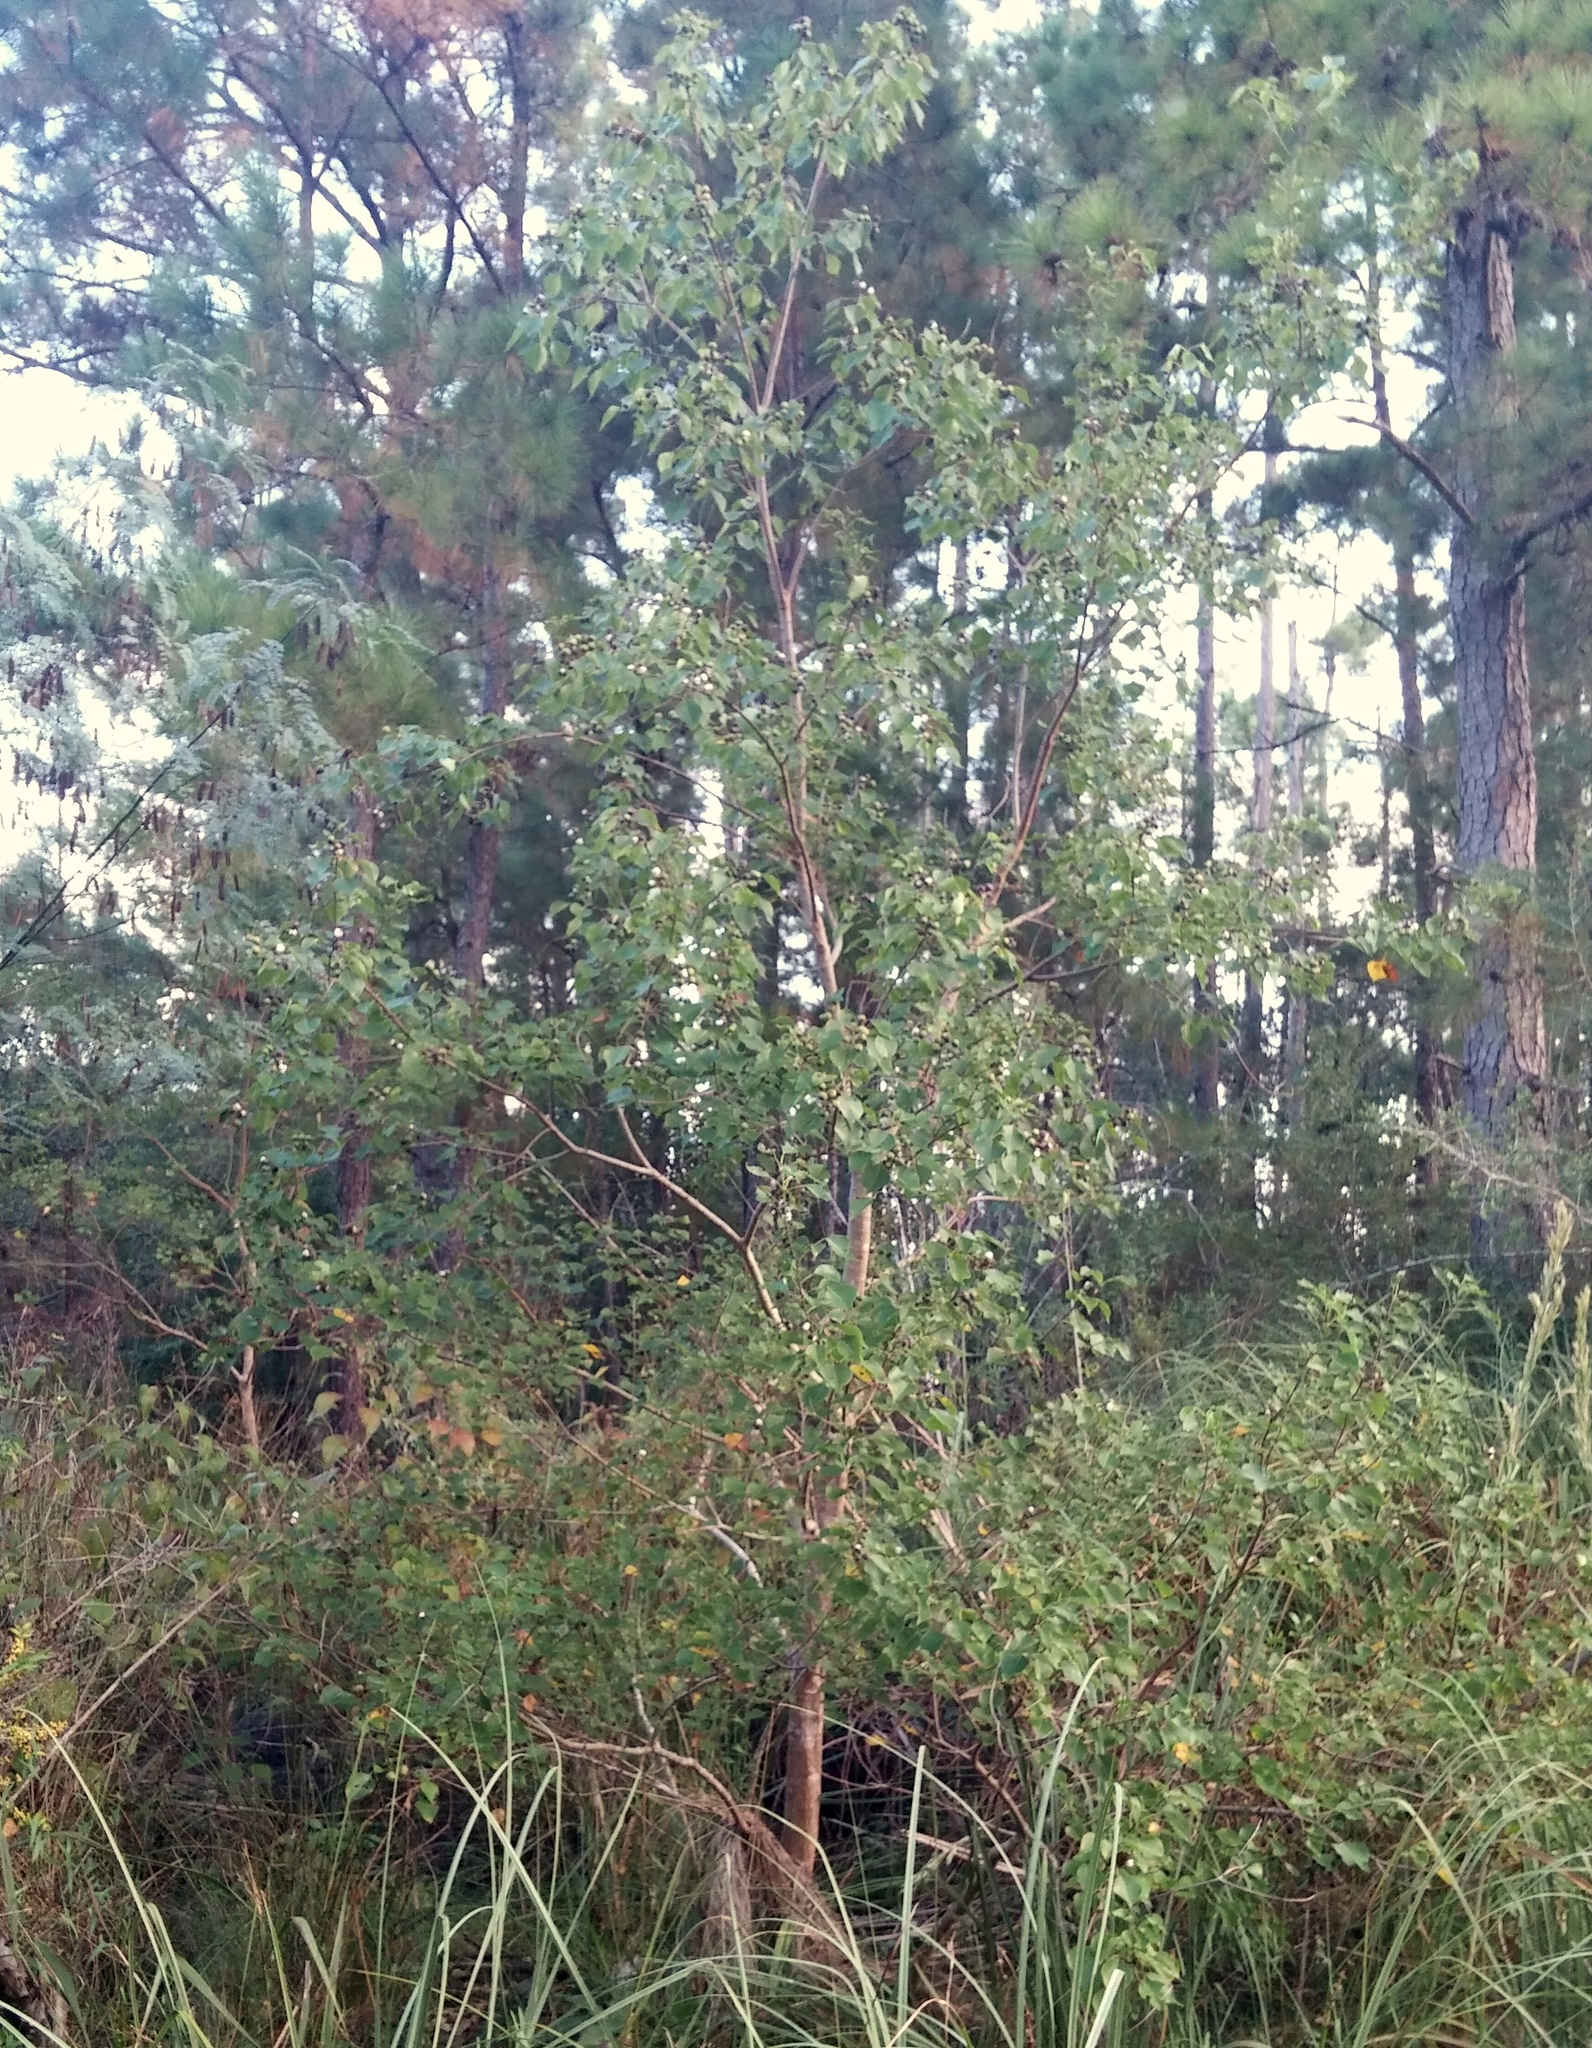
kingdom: Plantae
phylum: Tracheophyta
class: Magnoliopsida
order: Malpighiales
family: Euphorbiaceae
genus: Triadica
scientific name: Triadica sebifera
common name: Chinese tallow
